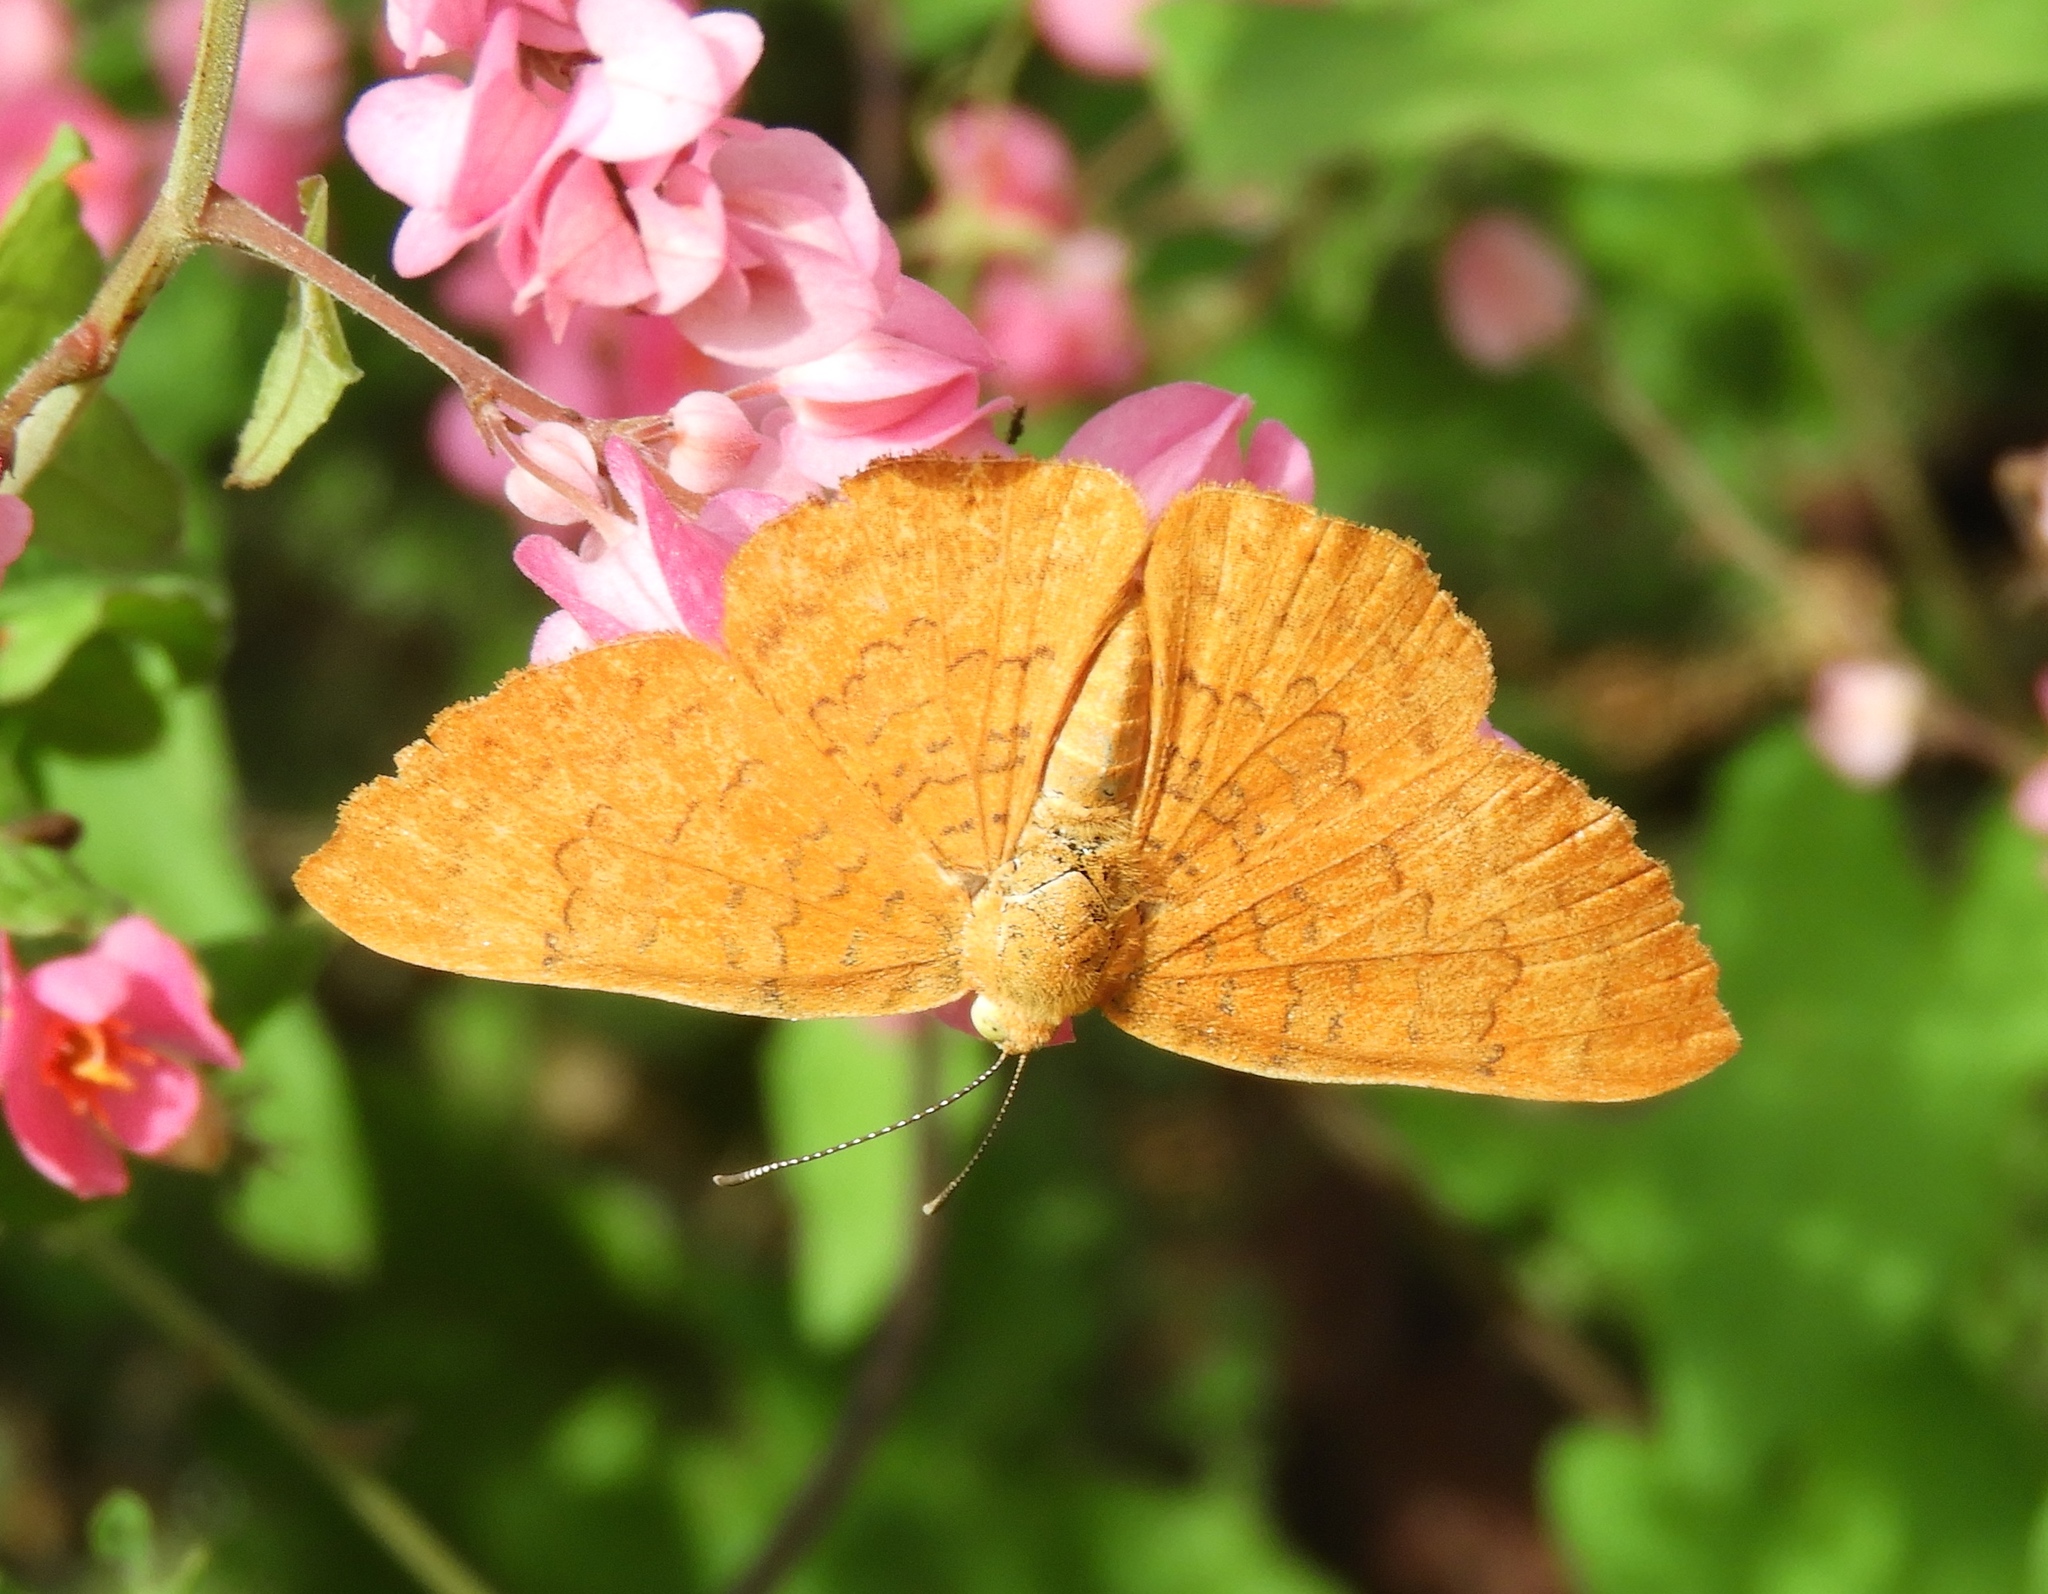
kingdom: Animalia
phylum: Arthropoda
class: Insecta
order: Lepidoptera
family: Lycaenidae
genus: Emesis
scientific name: Emesis
